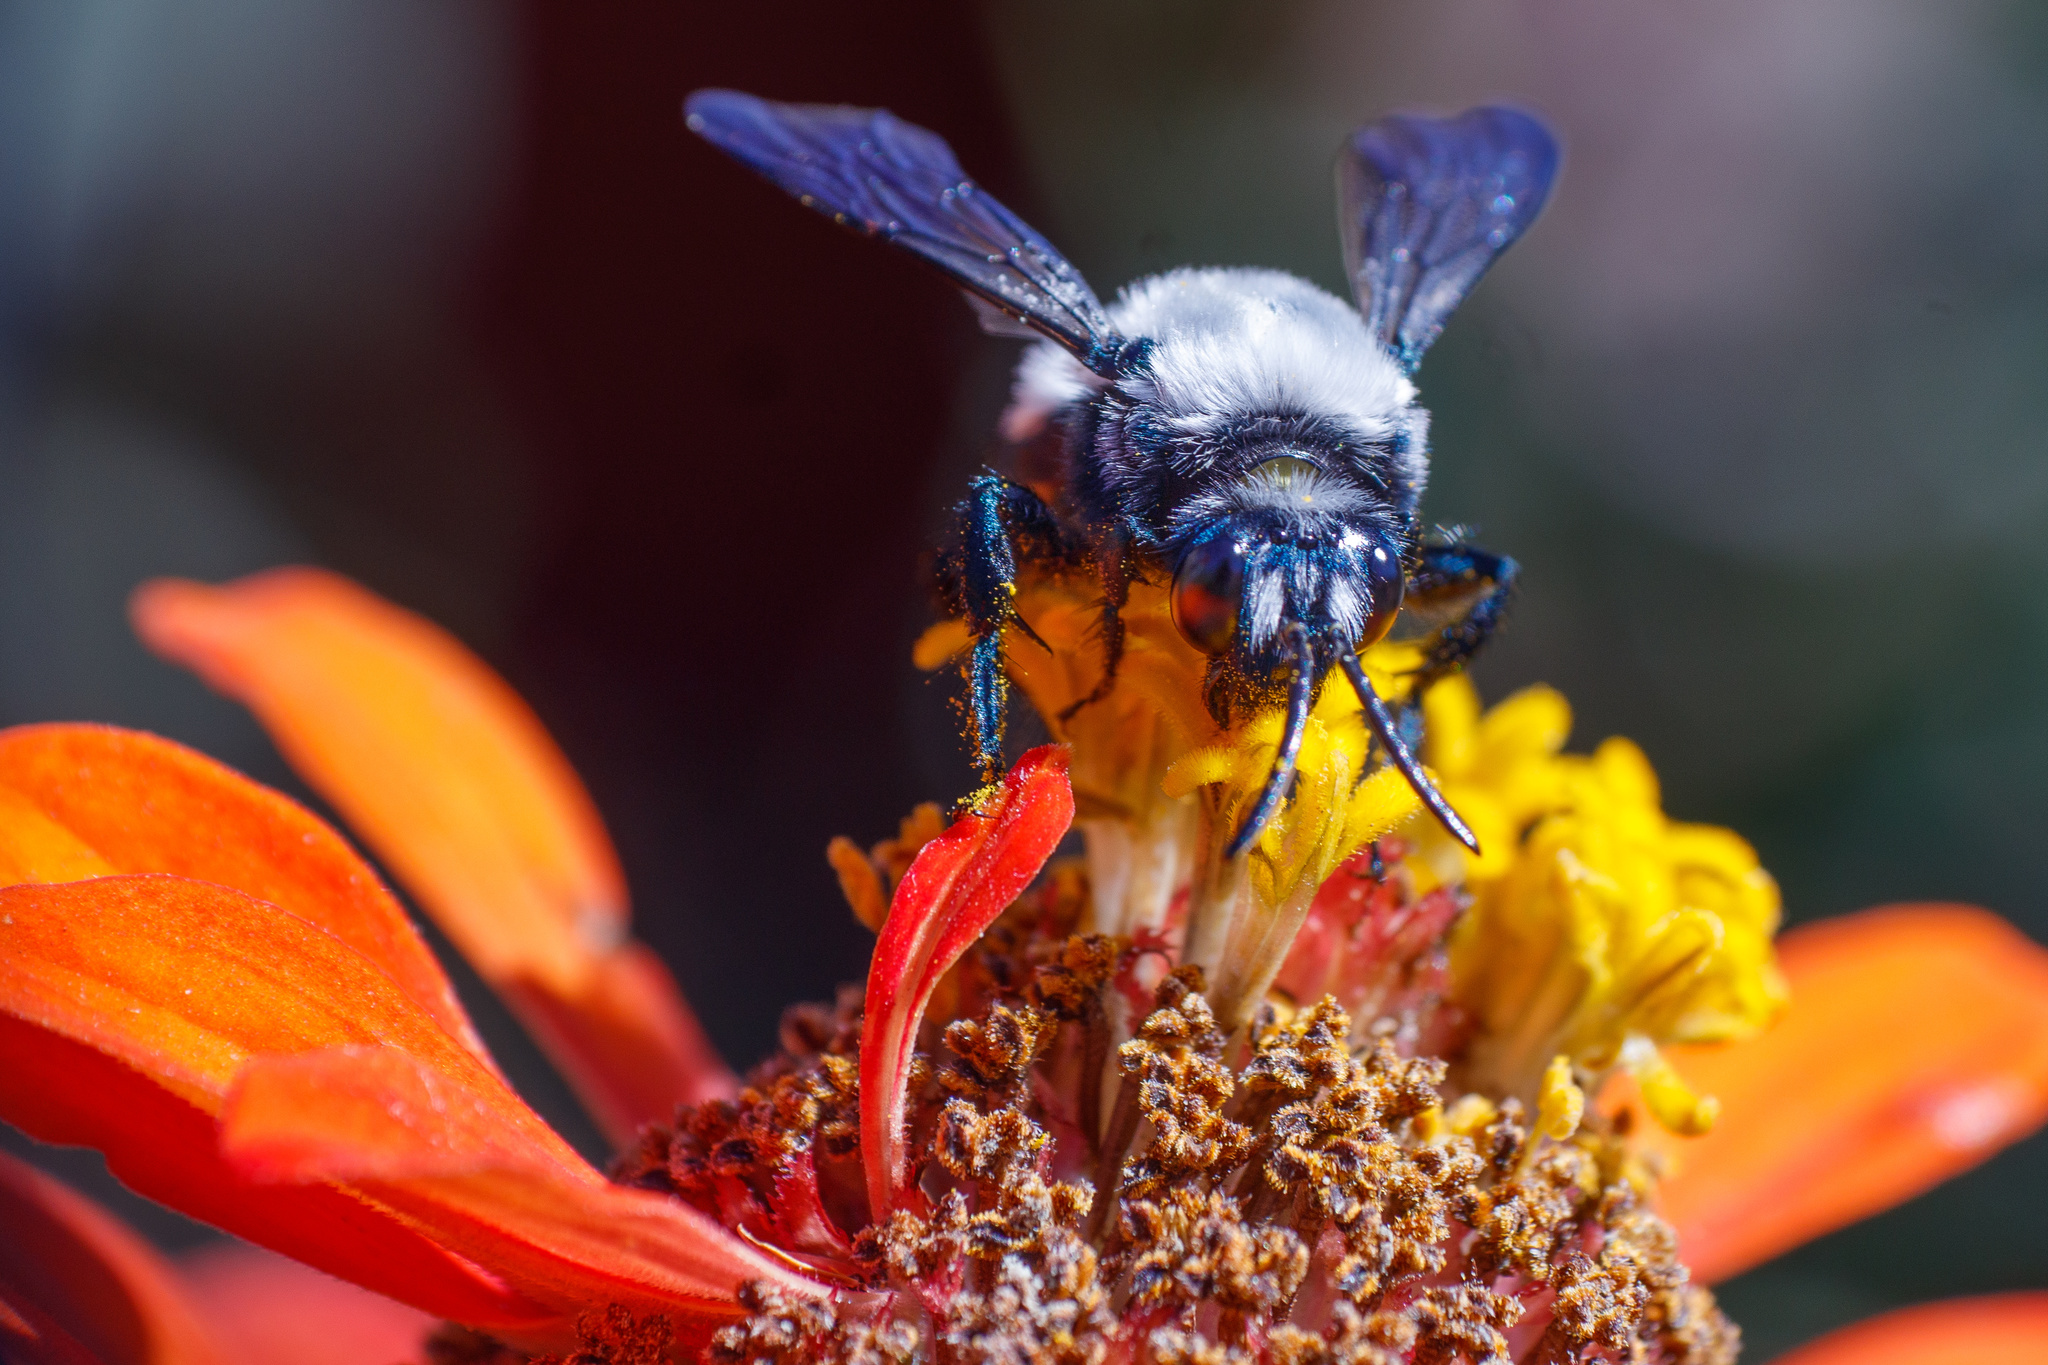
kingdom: Animalia
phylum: Arthropoda
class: Insecta
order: Hymenoptera
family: Apidae
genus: Epiclopus
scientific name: Epiclopus gayi
